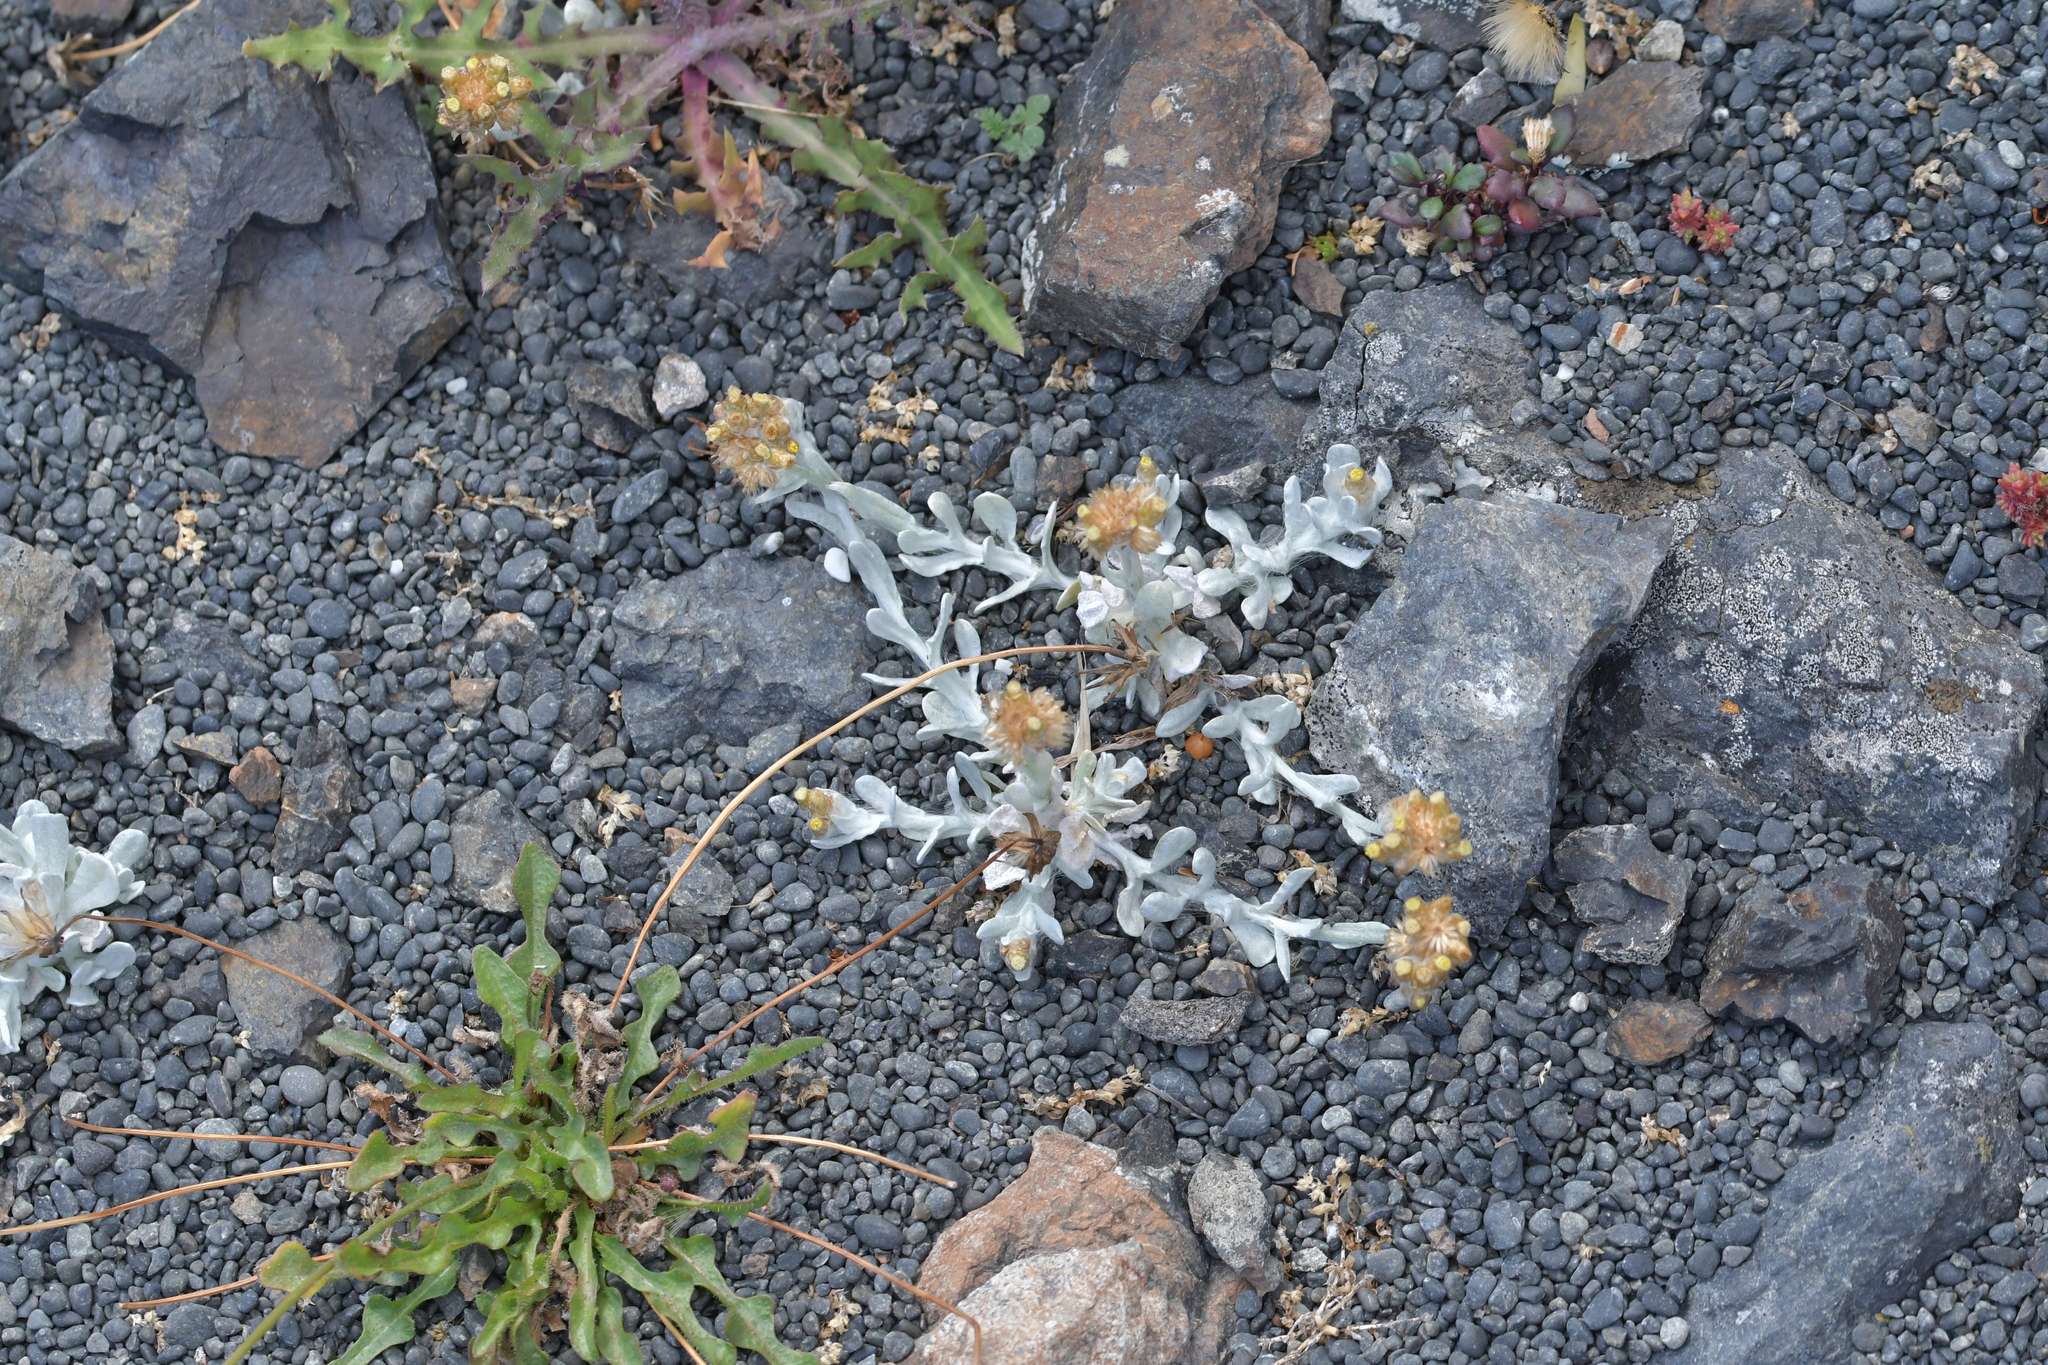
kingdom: Plantae
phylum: Tracheophyta
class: Magnoliopsida
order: Asterales
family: Asteraceae
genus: Helichrysum
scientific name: Helichrysum luteoalbum
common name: Daisy
